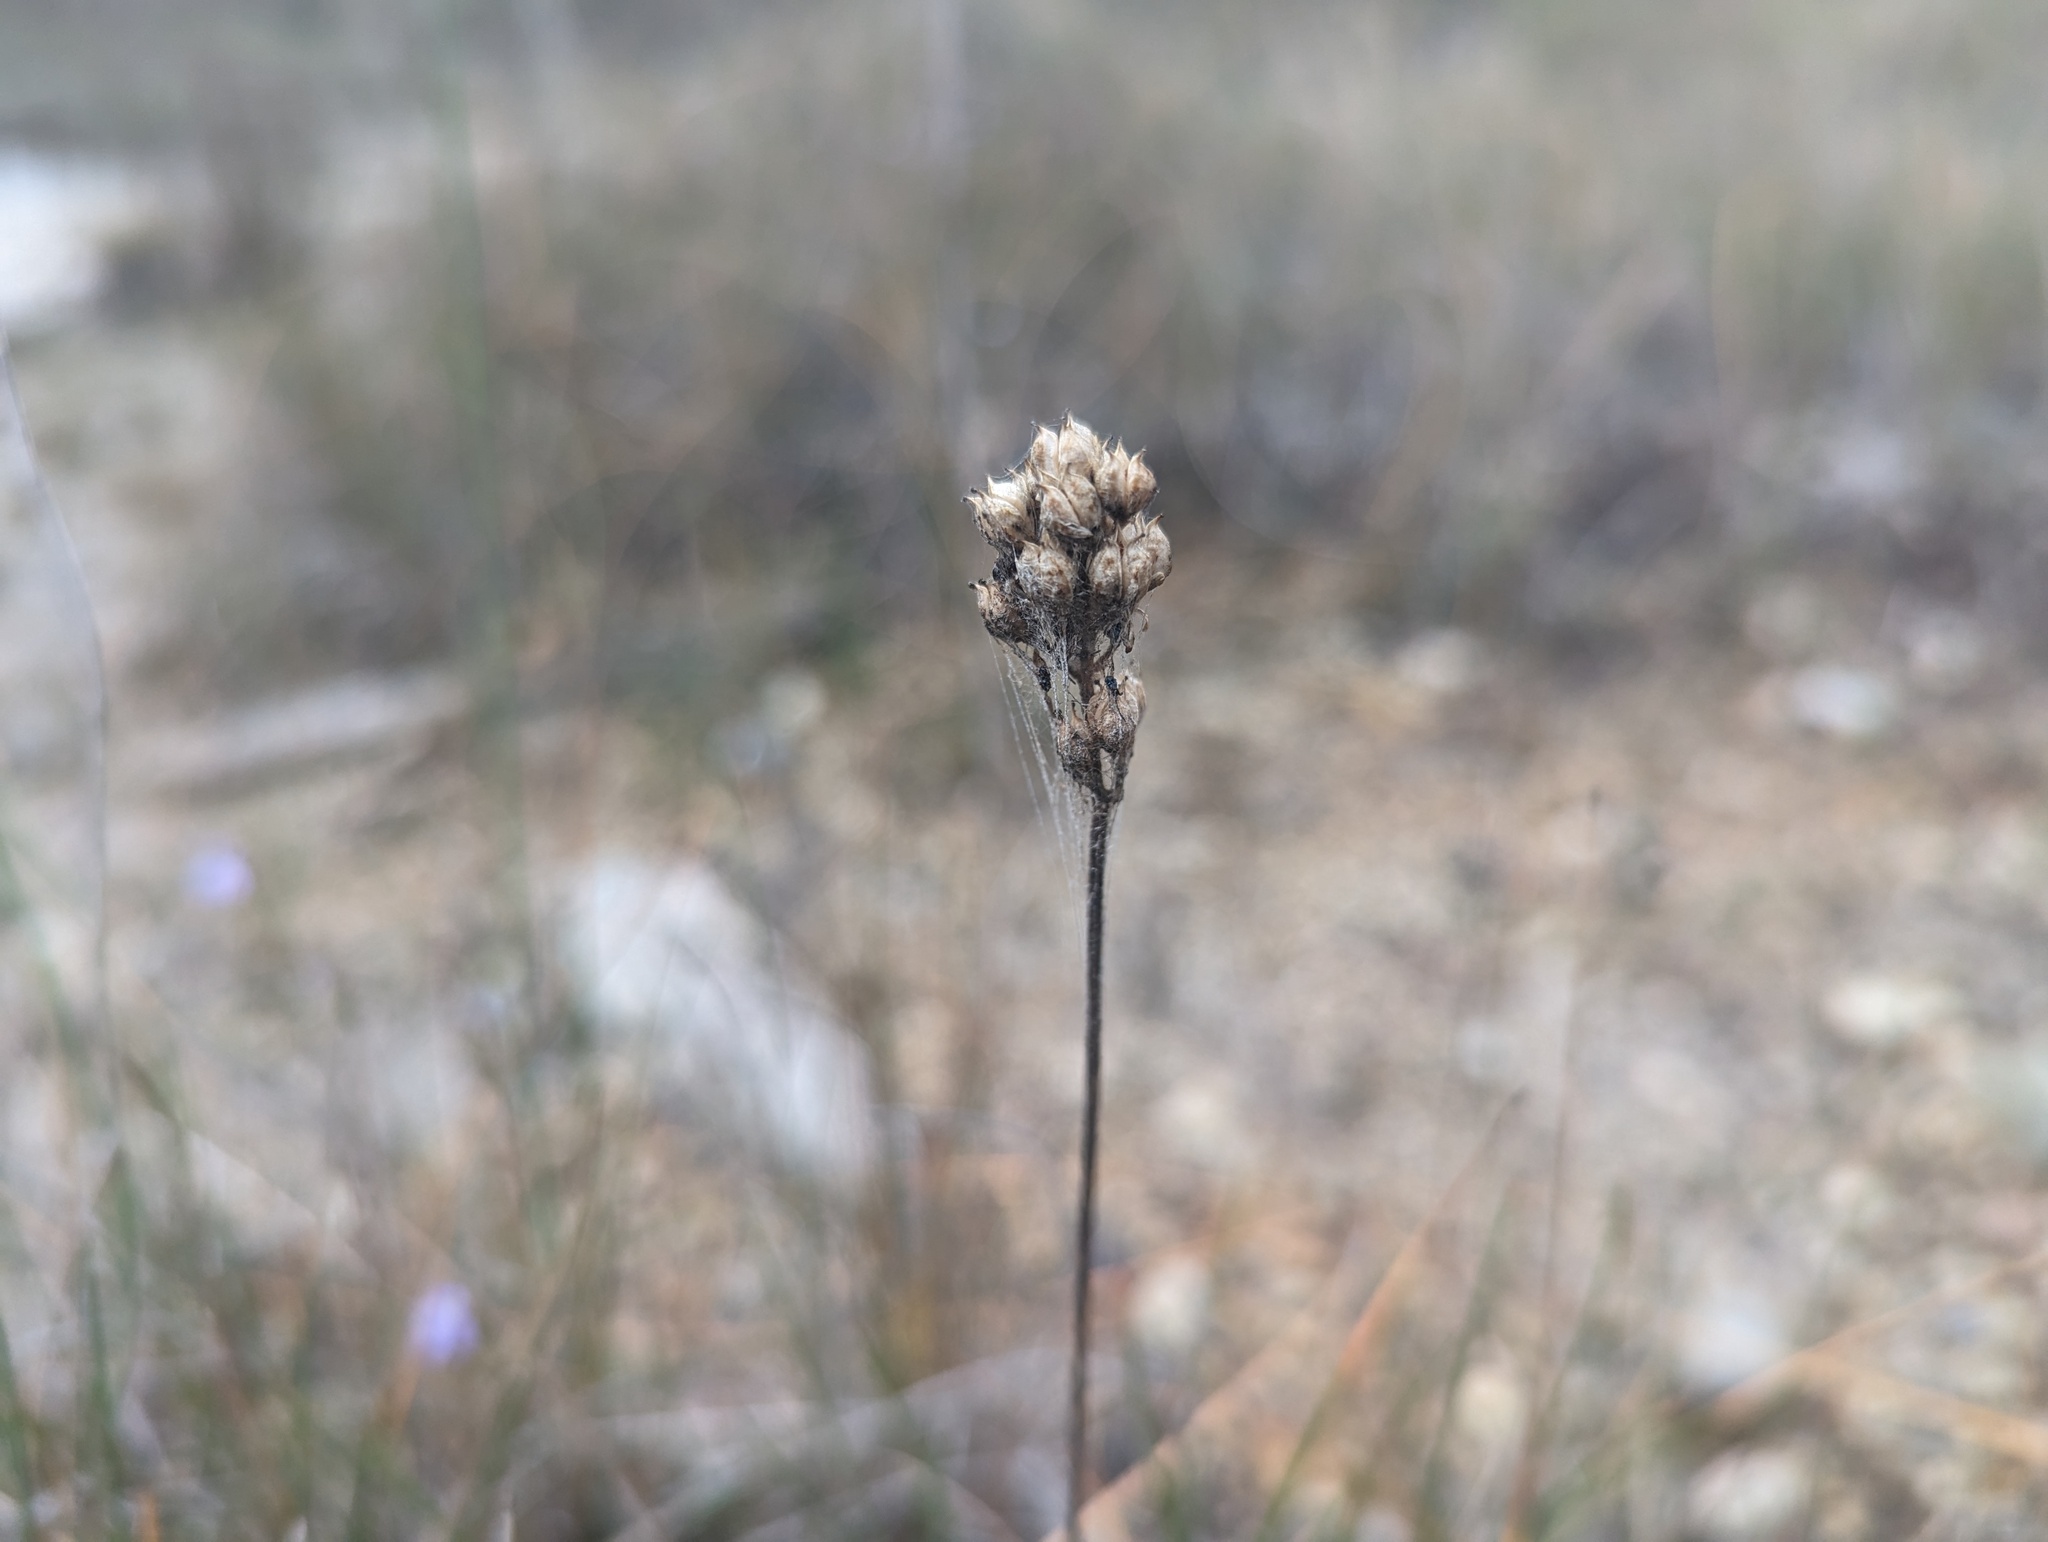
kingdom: Plantae
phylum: Tracheophyta
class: Liliopsida
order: Alismatales
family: Tofieldiaceae
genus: Triantha
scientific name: Triantha glutinosa
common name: Glutinous tofieldia
